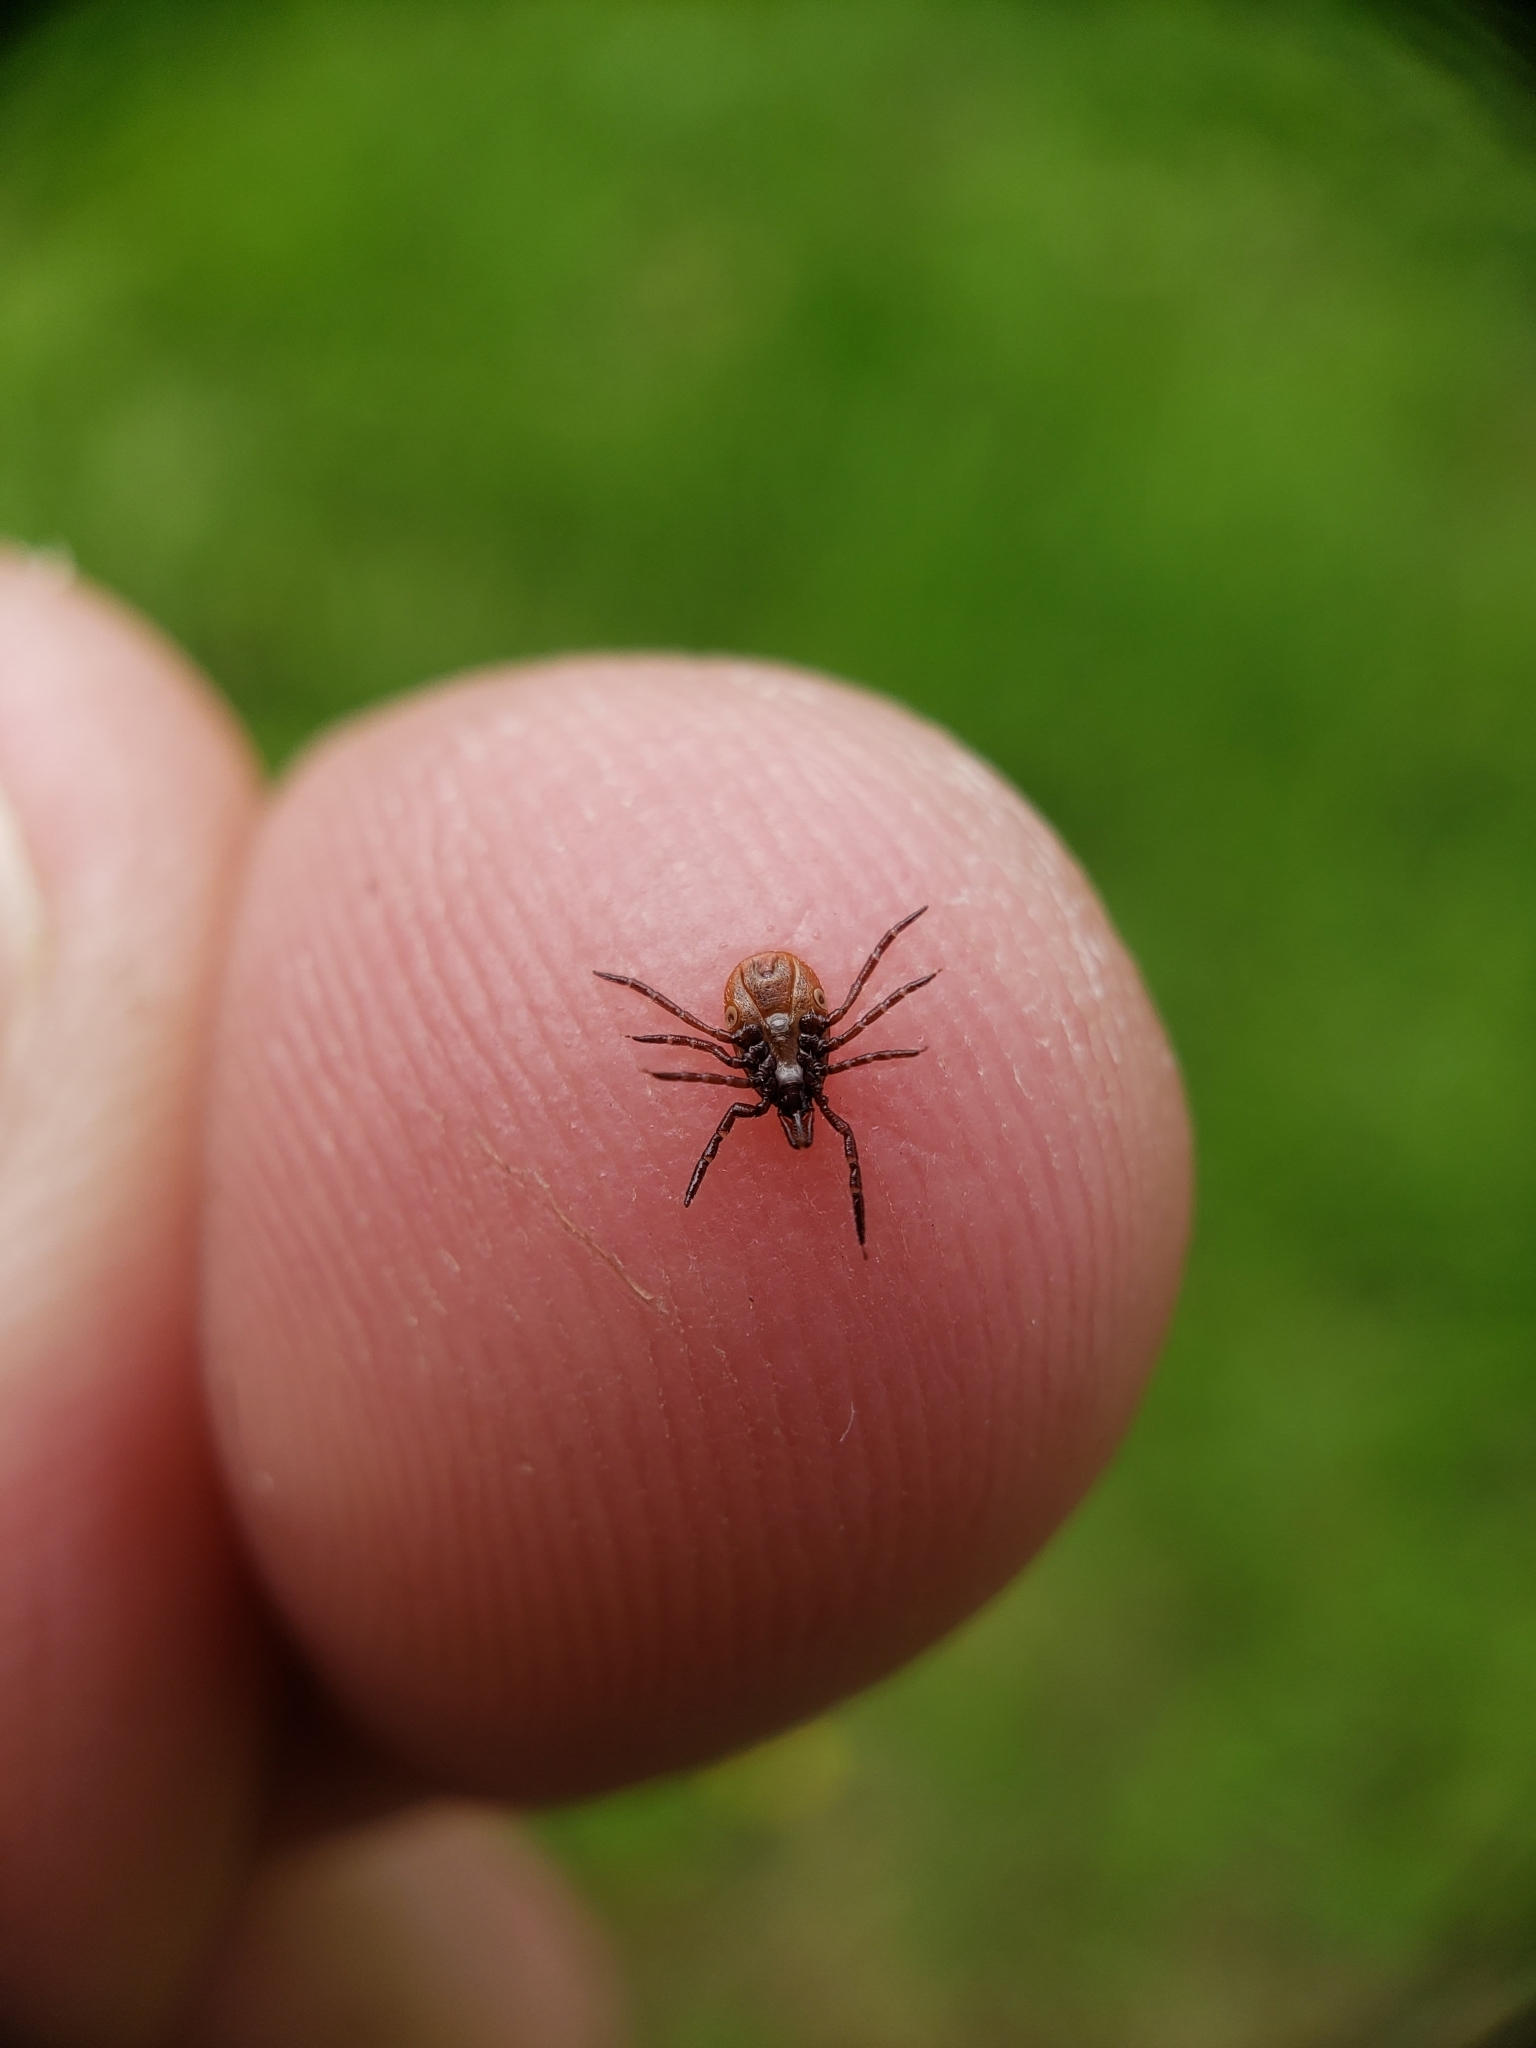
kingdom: Animalia
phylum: Arthropoda
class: Arachnida
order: Ixodida
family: Ixodidae
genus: Ixodes
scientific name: Ixodes scapularis
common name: Black legged tick
